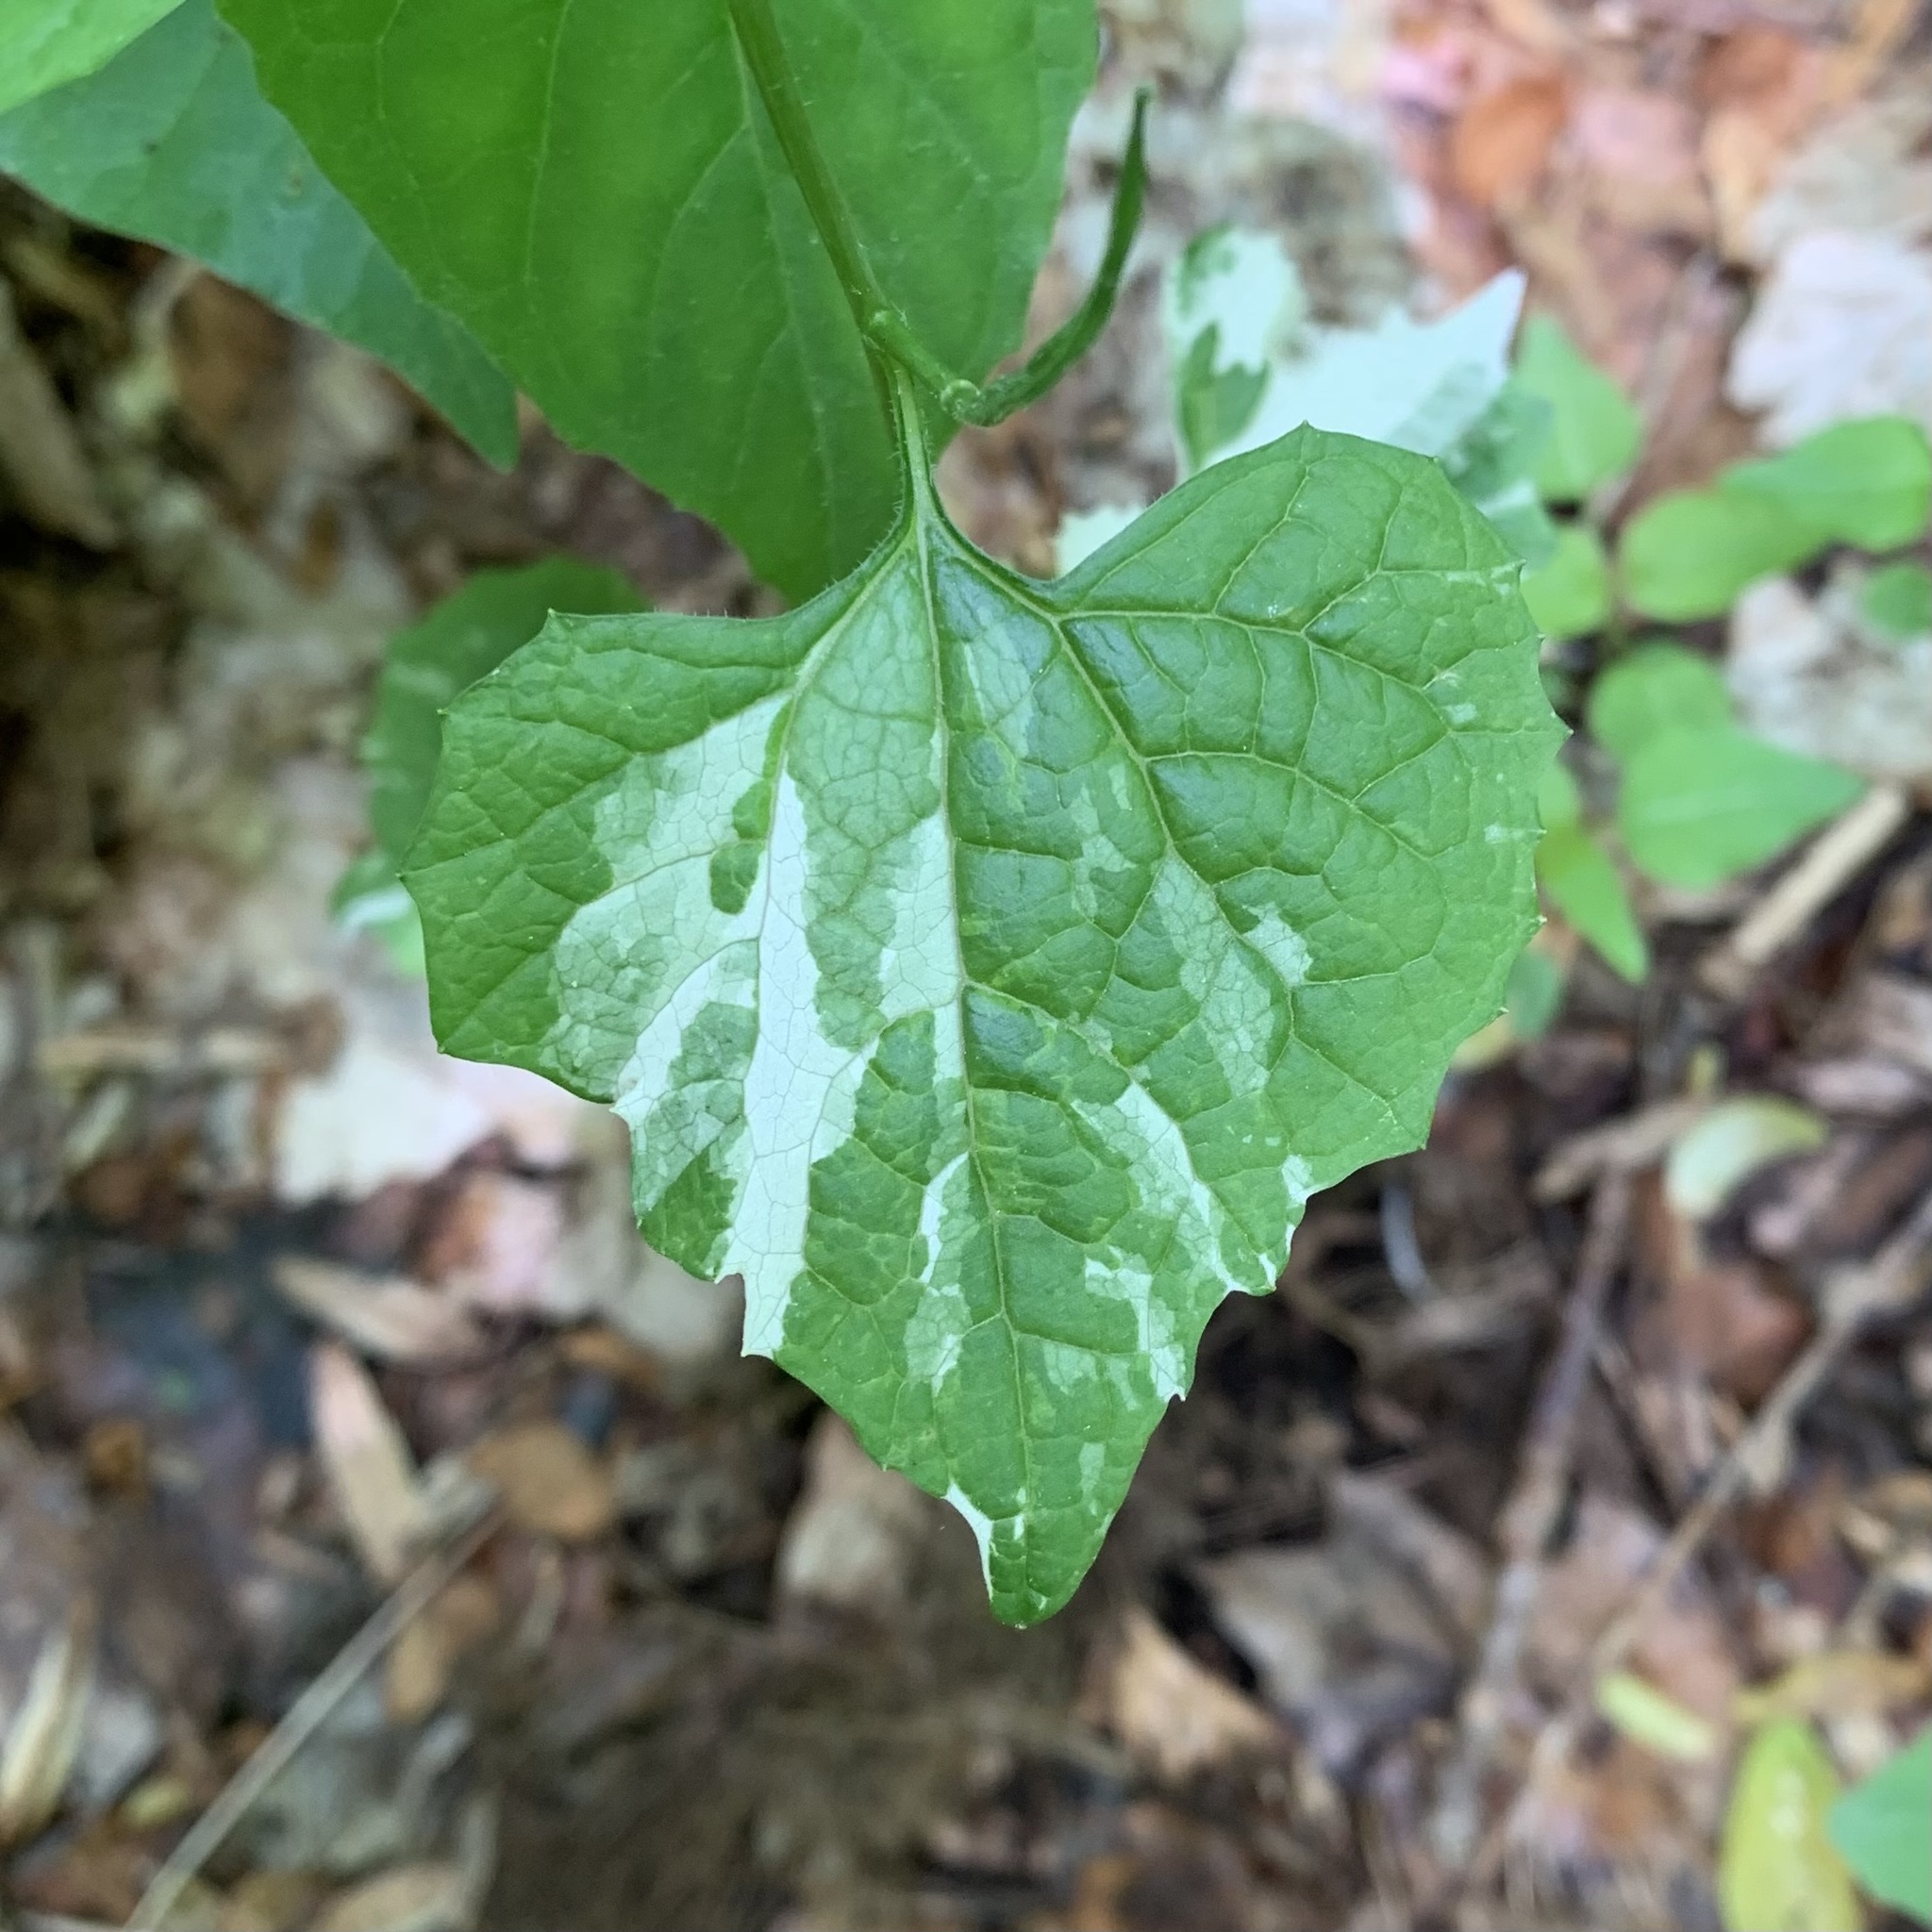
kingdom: Plantae
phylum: Tracheophyta
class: Magnoliopsida
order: Brassicales
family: Brassicaceae
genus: Alliaria
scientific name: Alliaria petiolata
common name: Garlic mustard
